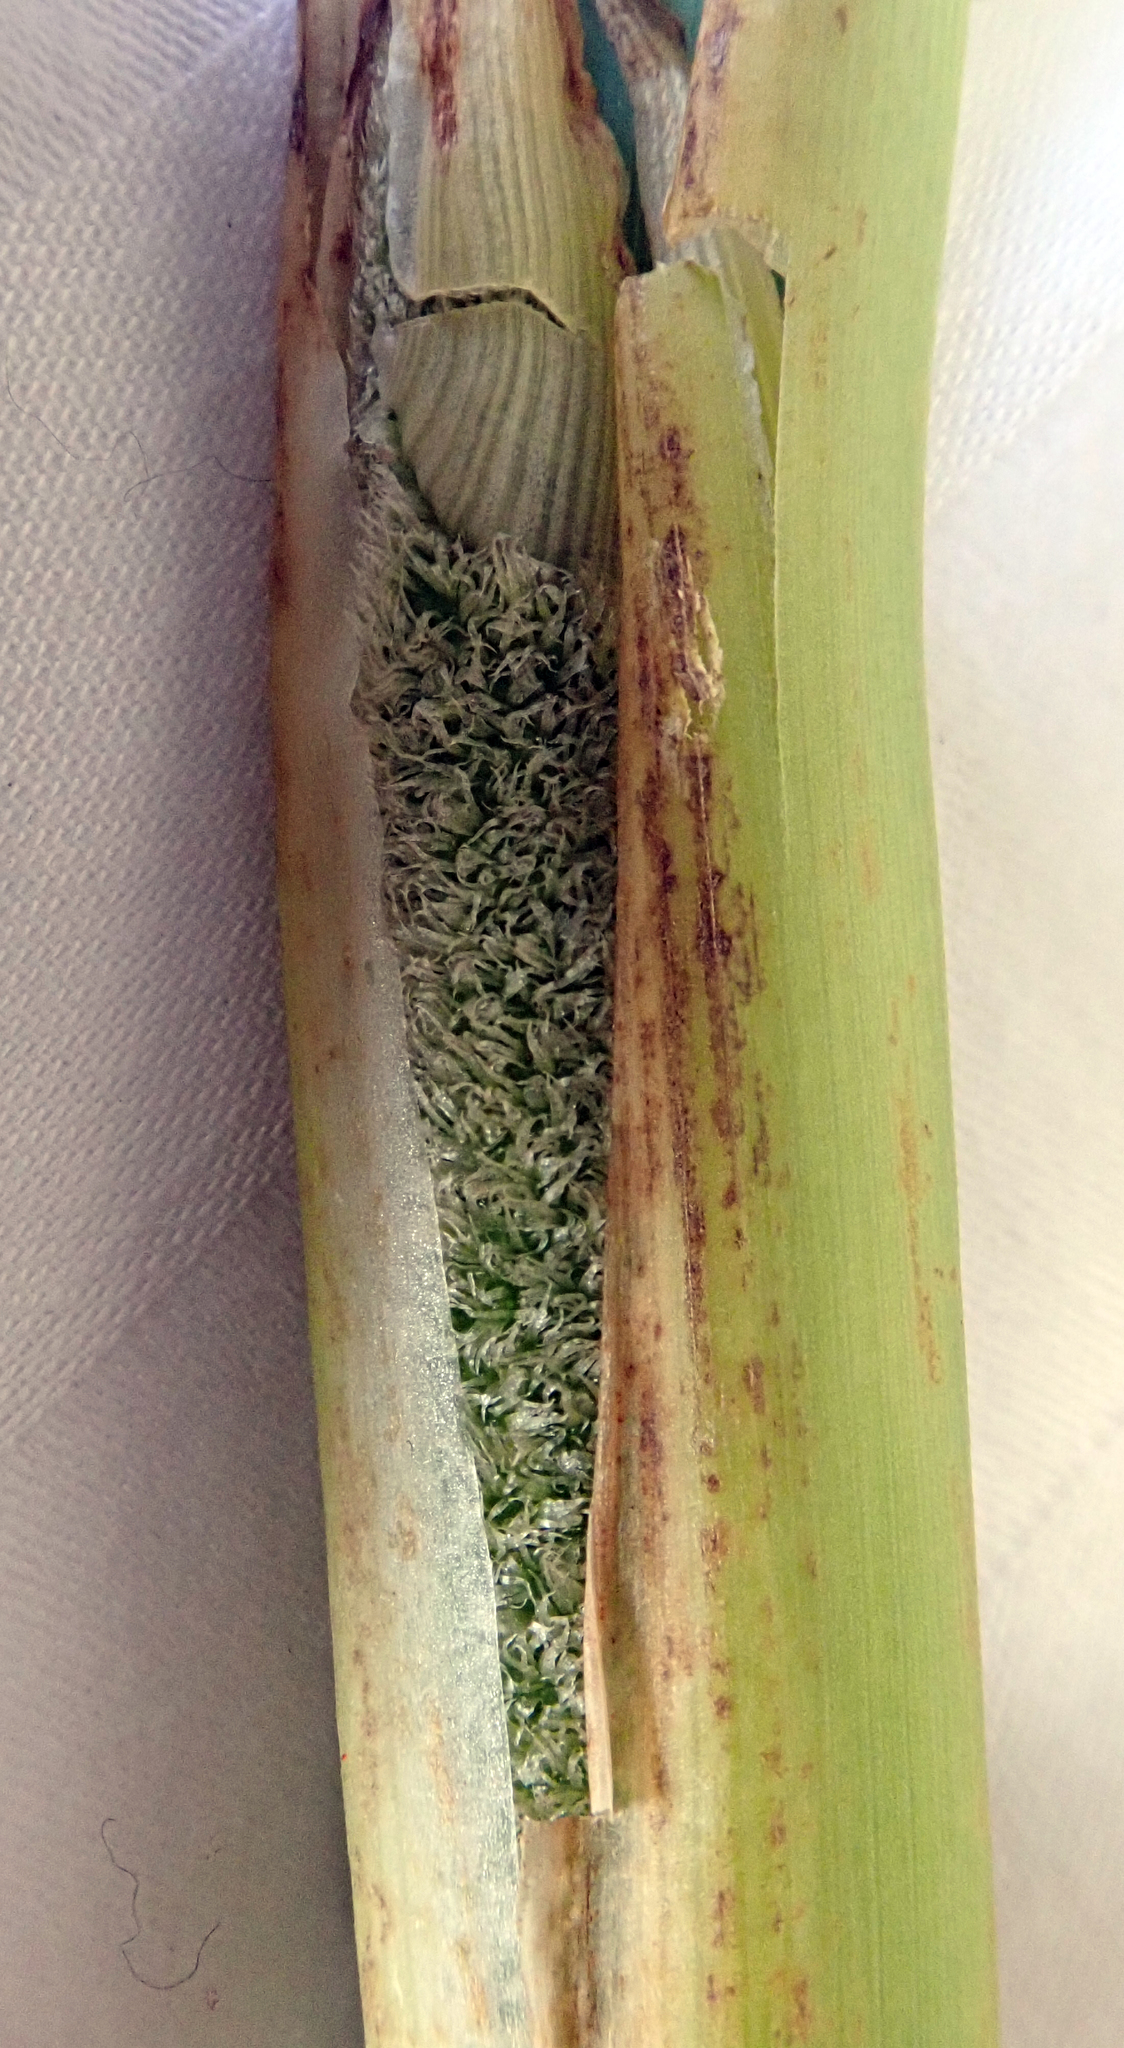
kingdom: Plantae
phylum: Tracheophyta
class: Liliopsida
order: Poales
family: Typhaceae
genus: Typha
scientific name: Typha orientalis
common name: Bullrush
